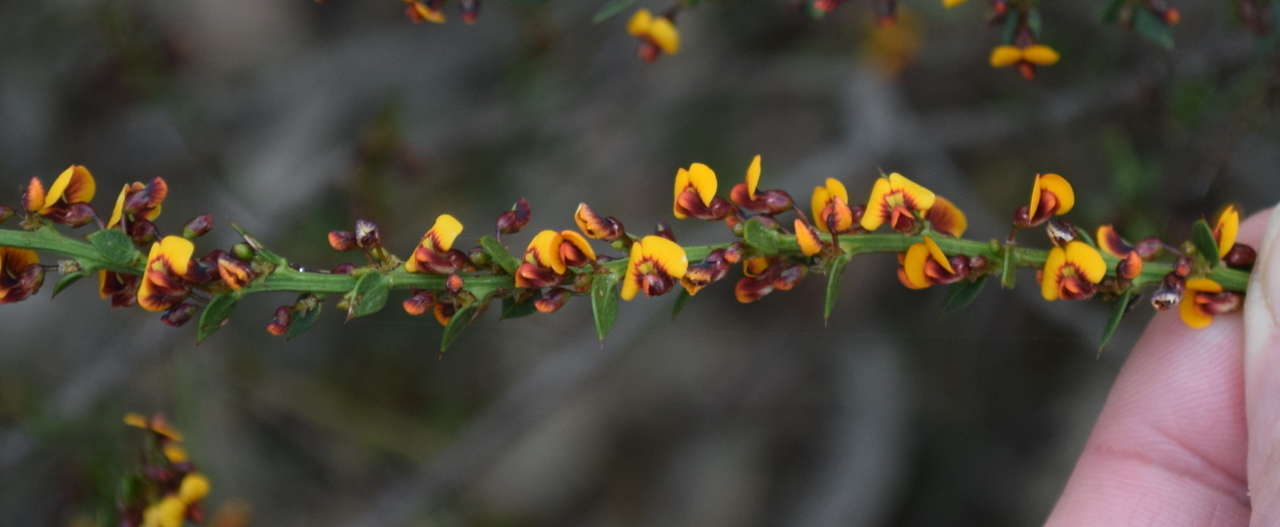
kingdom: Plantae
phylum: Tracheophyta
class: Magnoliopsida
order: Fabales
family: Fabaceae
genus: Daviesia
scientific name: Daviesia ulicifolia
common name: Gorse bitter-pea
